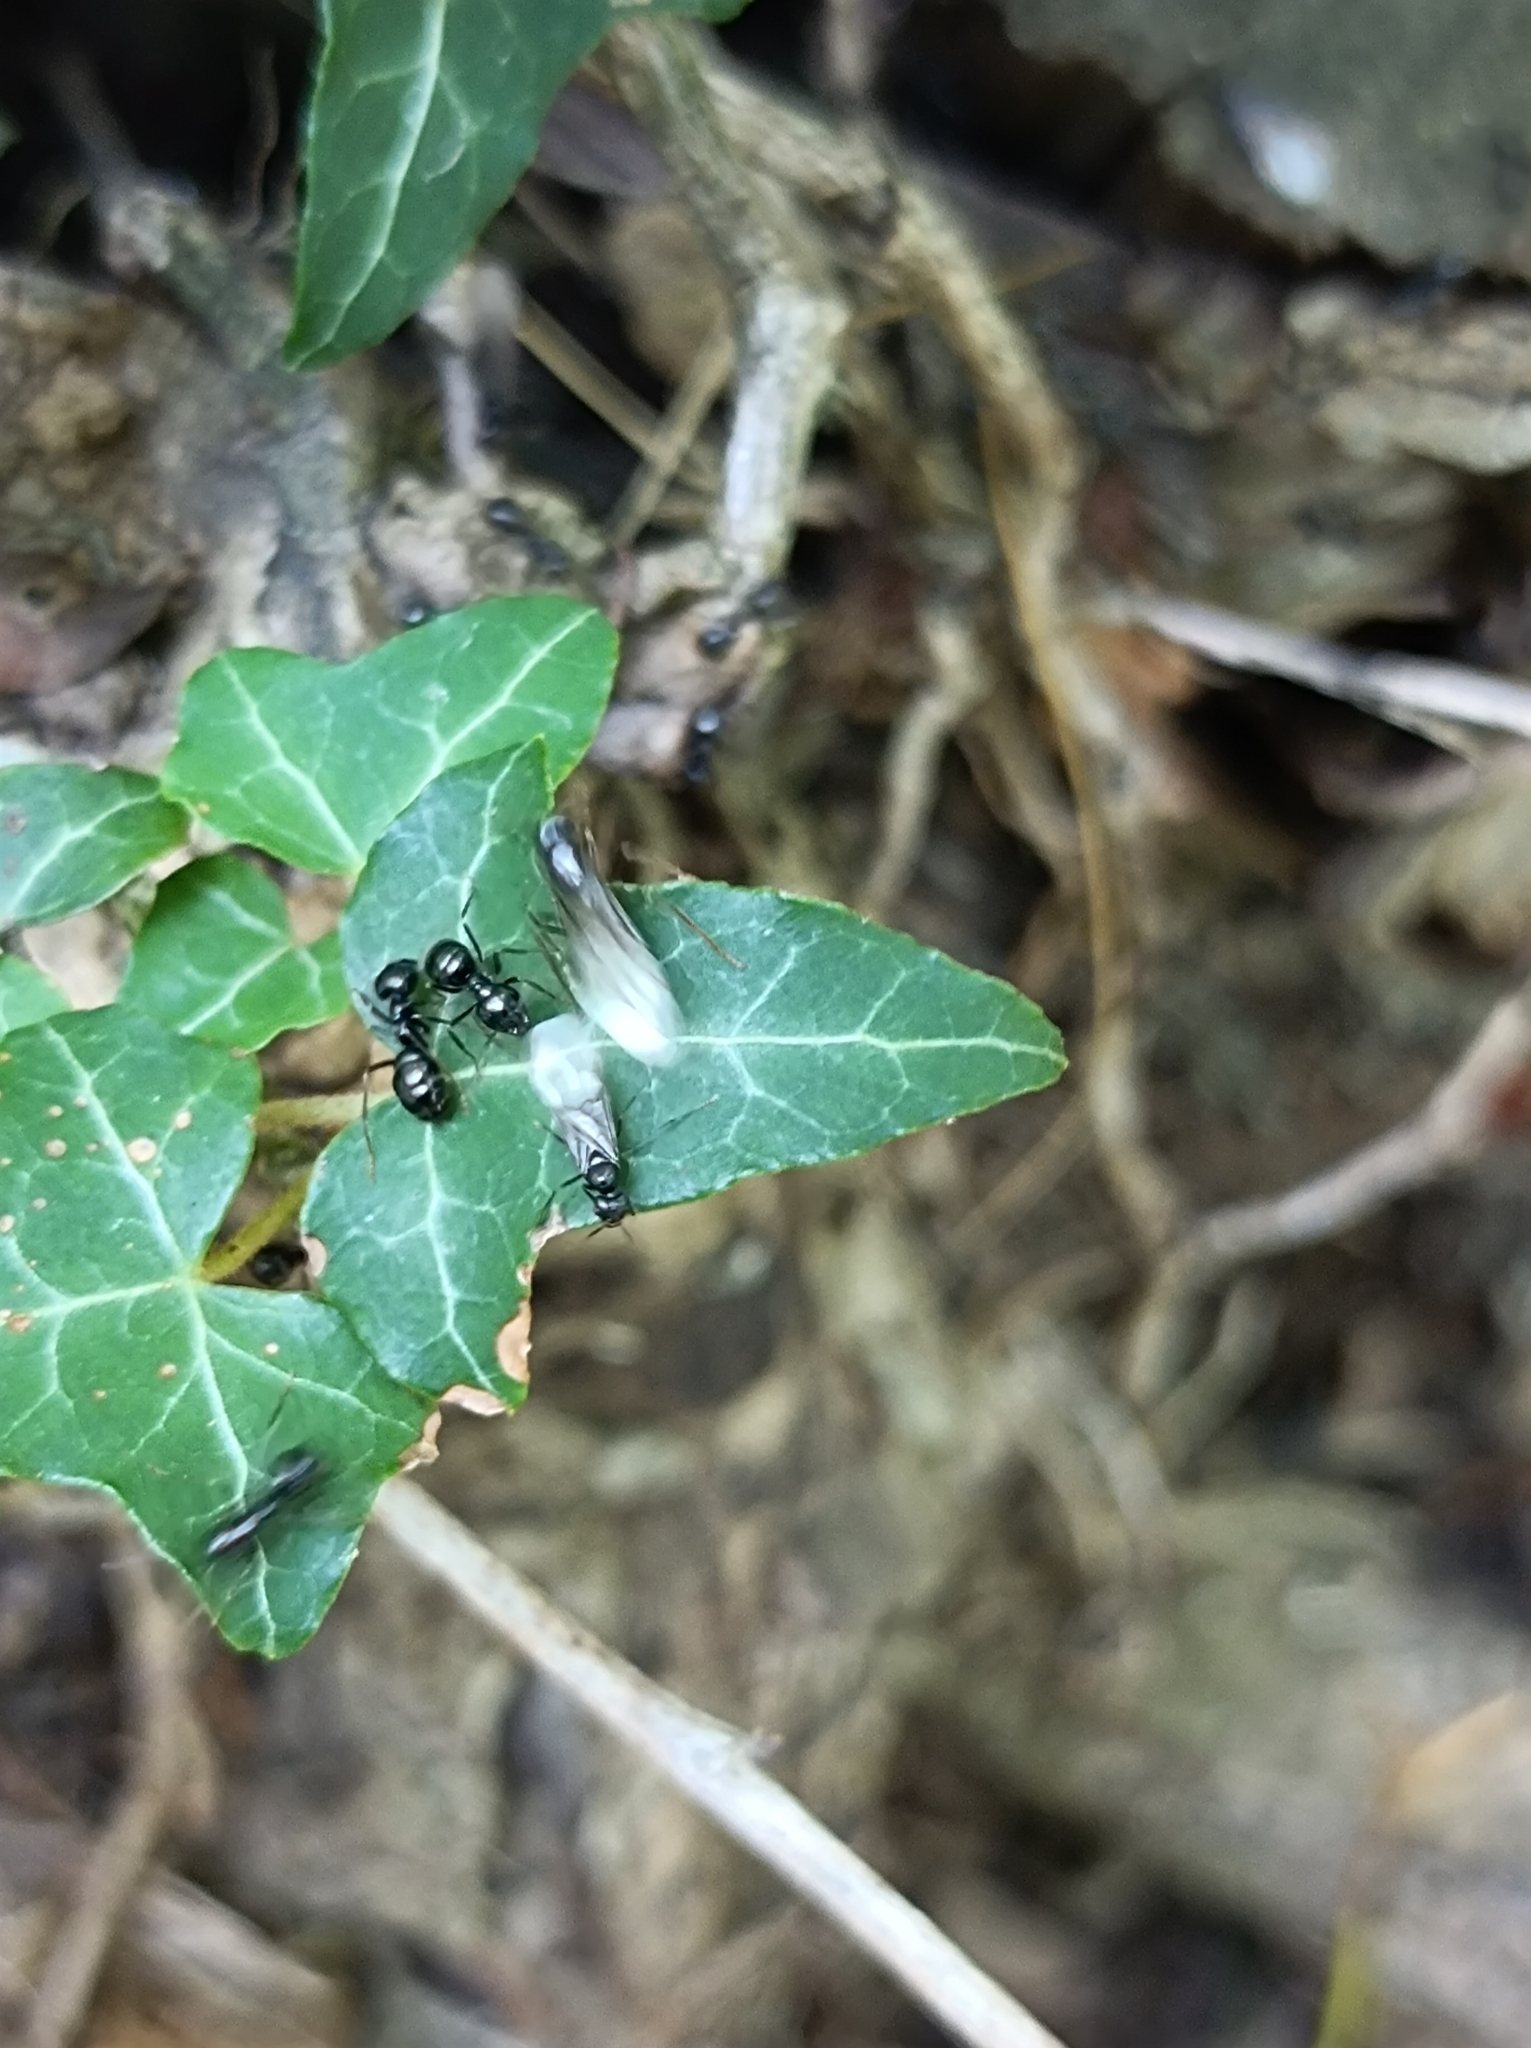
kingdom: Animalia
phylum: Arthropoda
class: Insecta
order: Hymenoptera
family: Formicidae
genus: Lasius
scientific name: Lasius fuliginosus
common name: Jet ant
